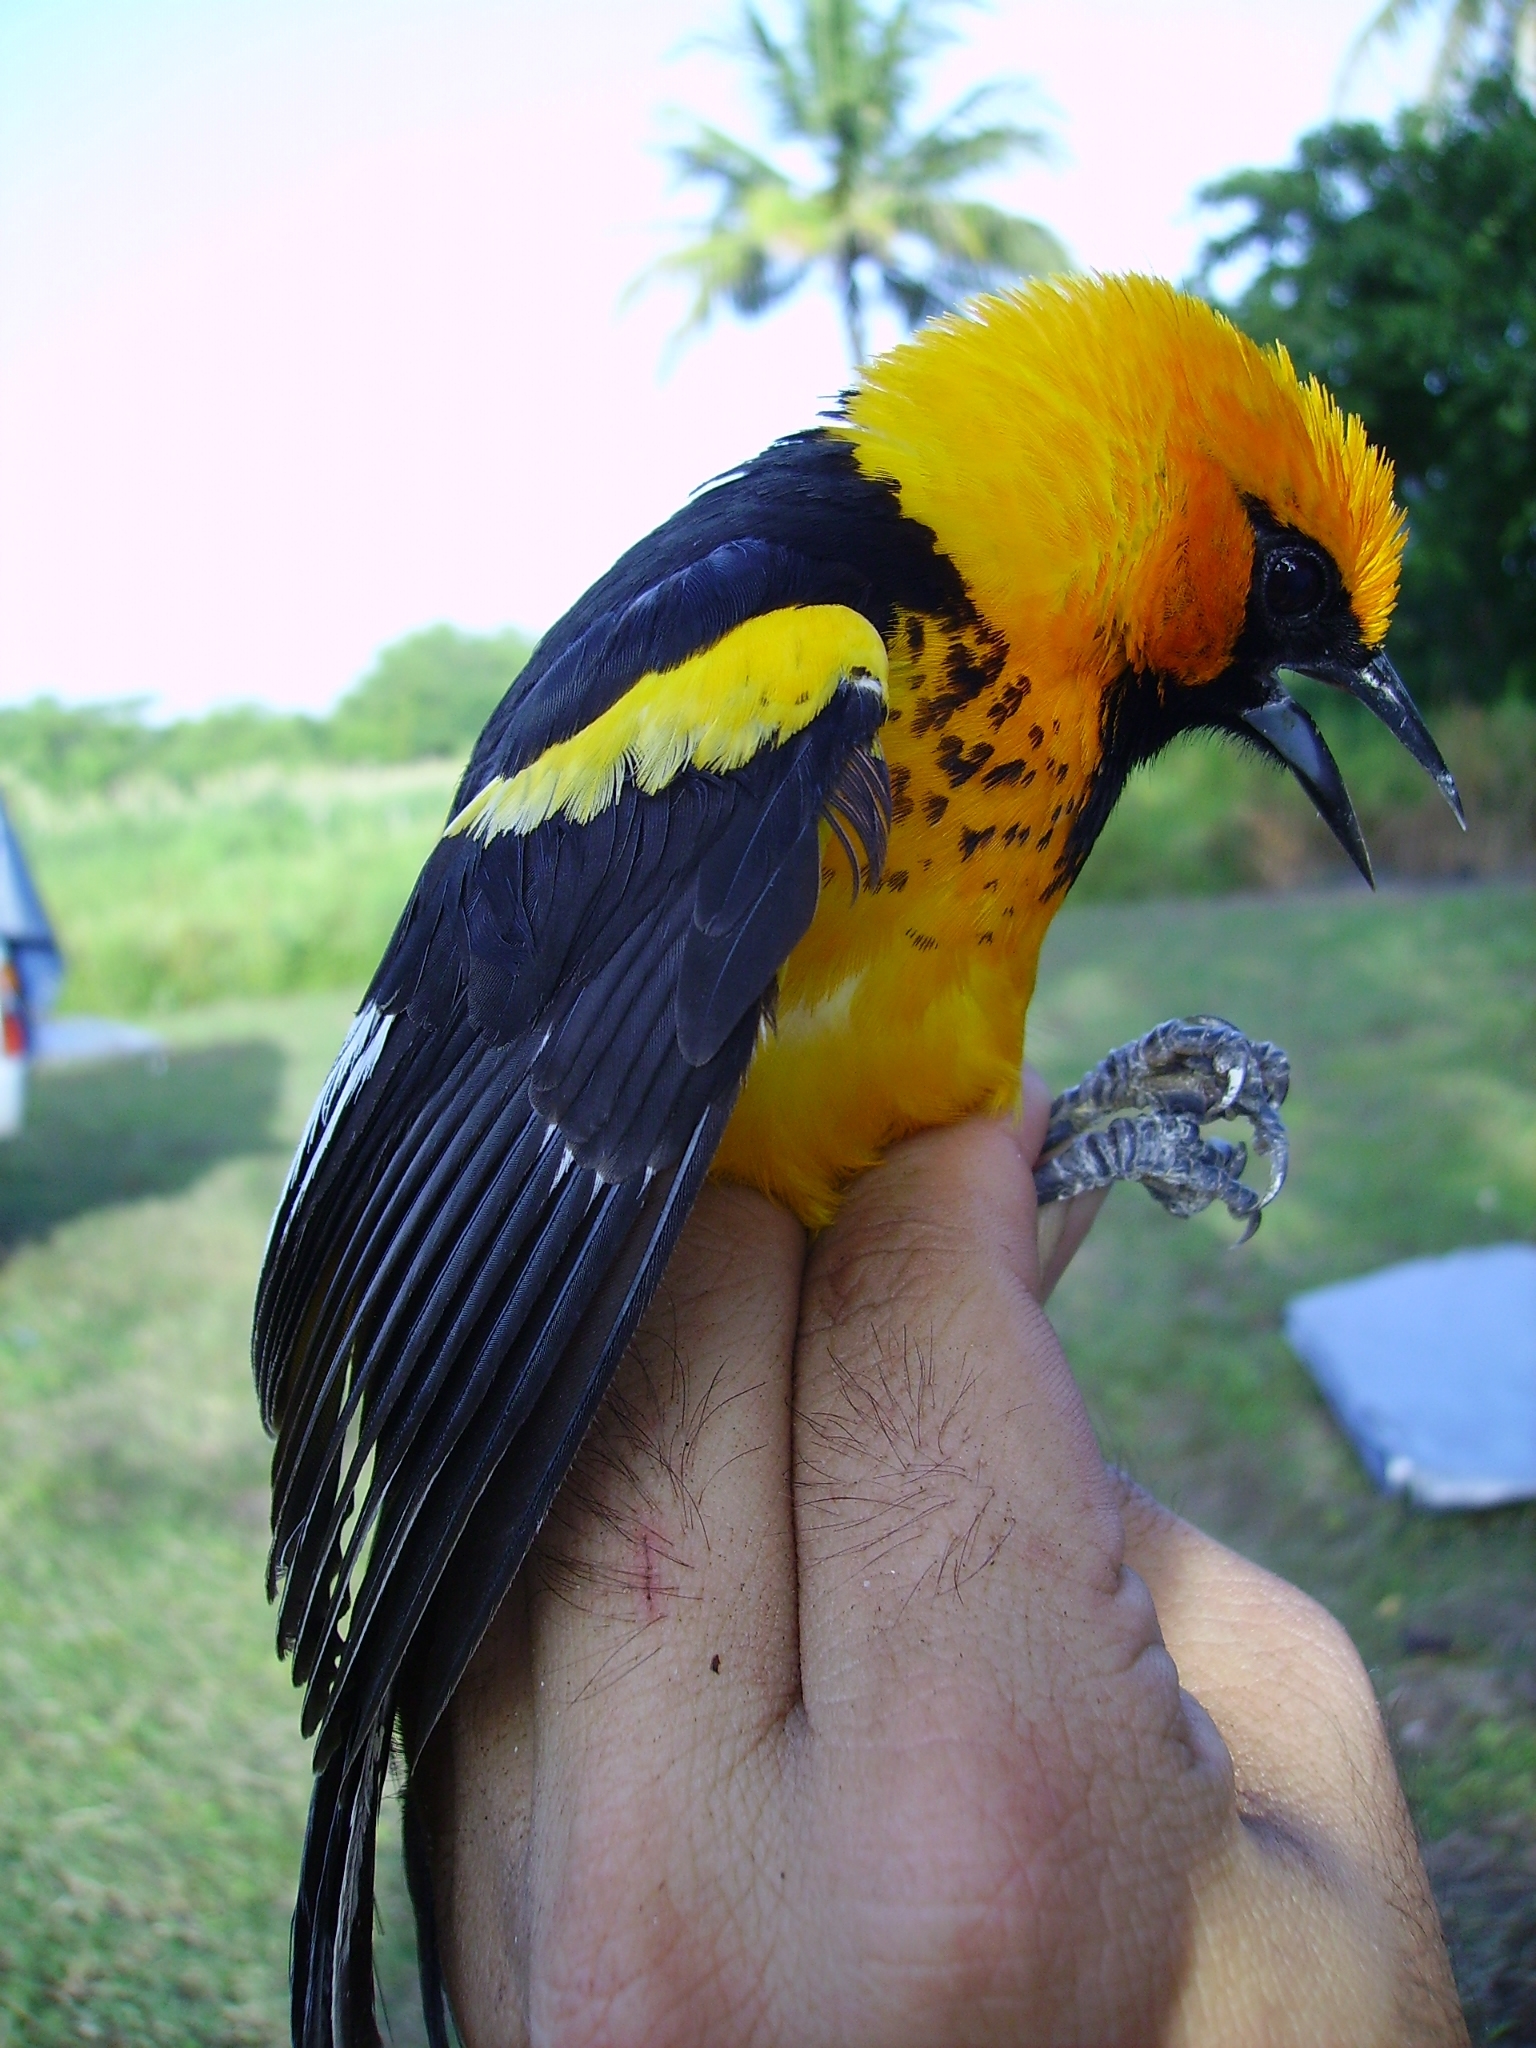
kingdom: Animalia
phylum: Chordata
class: Aves
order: Passeriformes
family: Icteridae
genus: Icterus
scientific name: Icterus pectoralis
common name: Spot-breasted oriole
